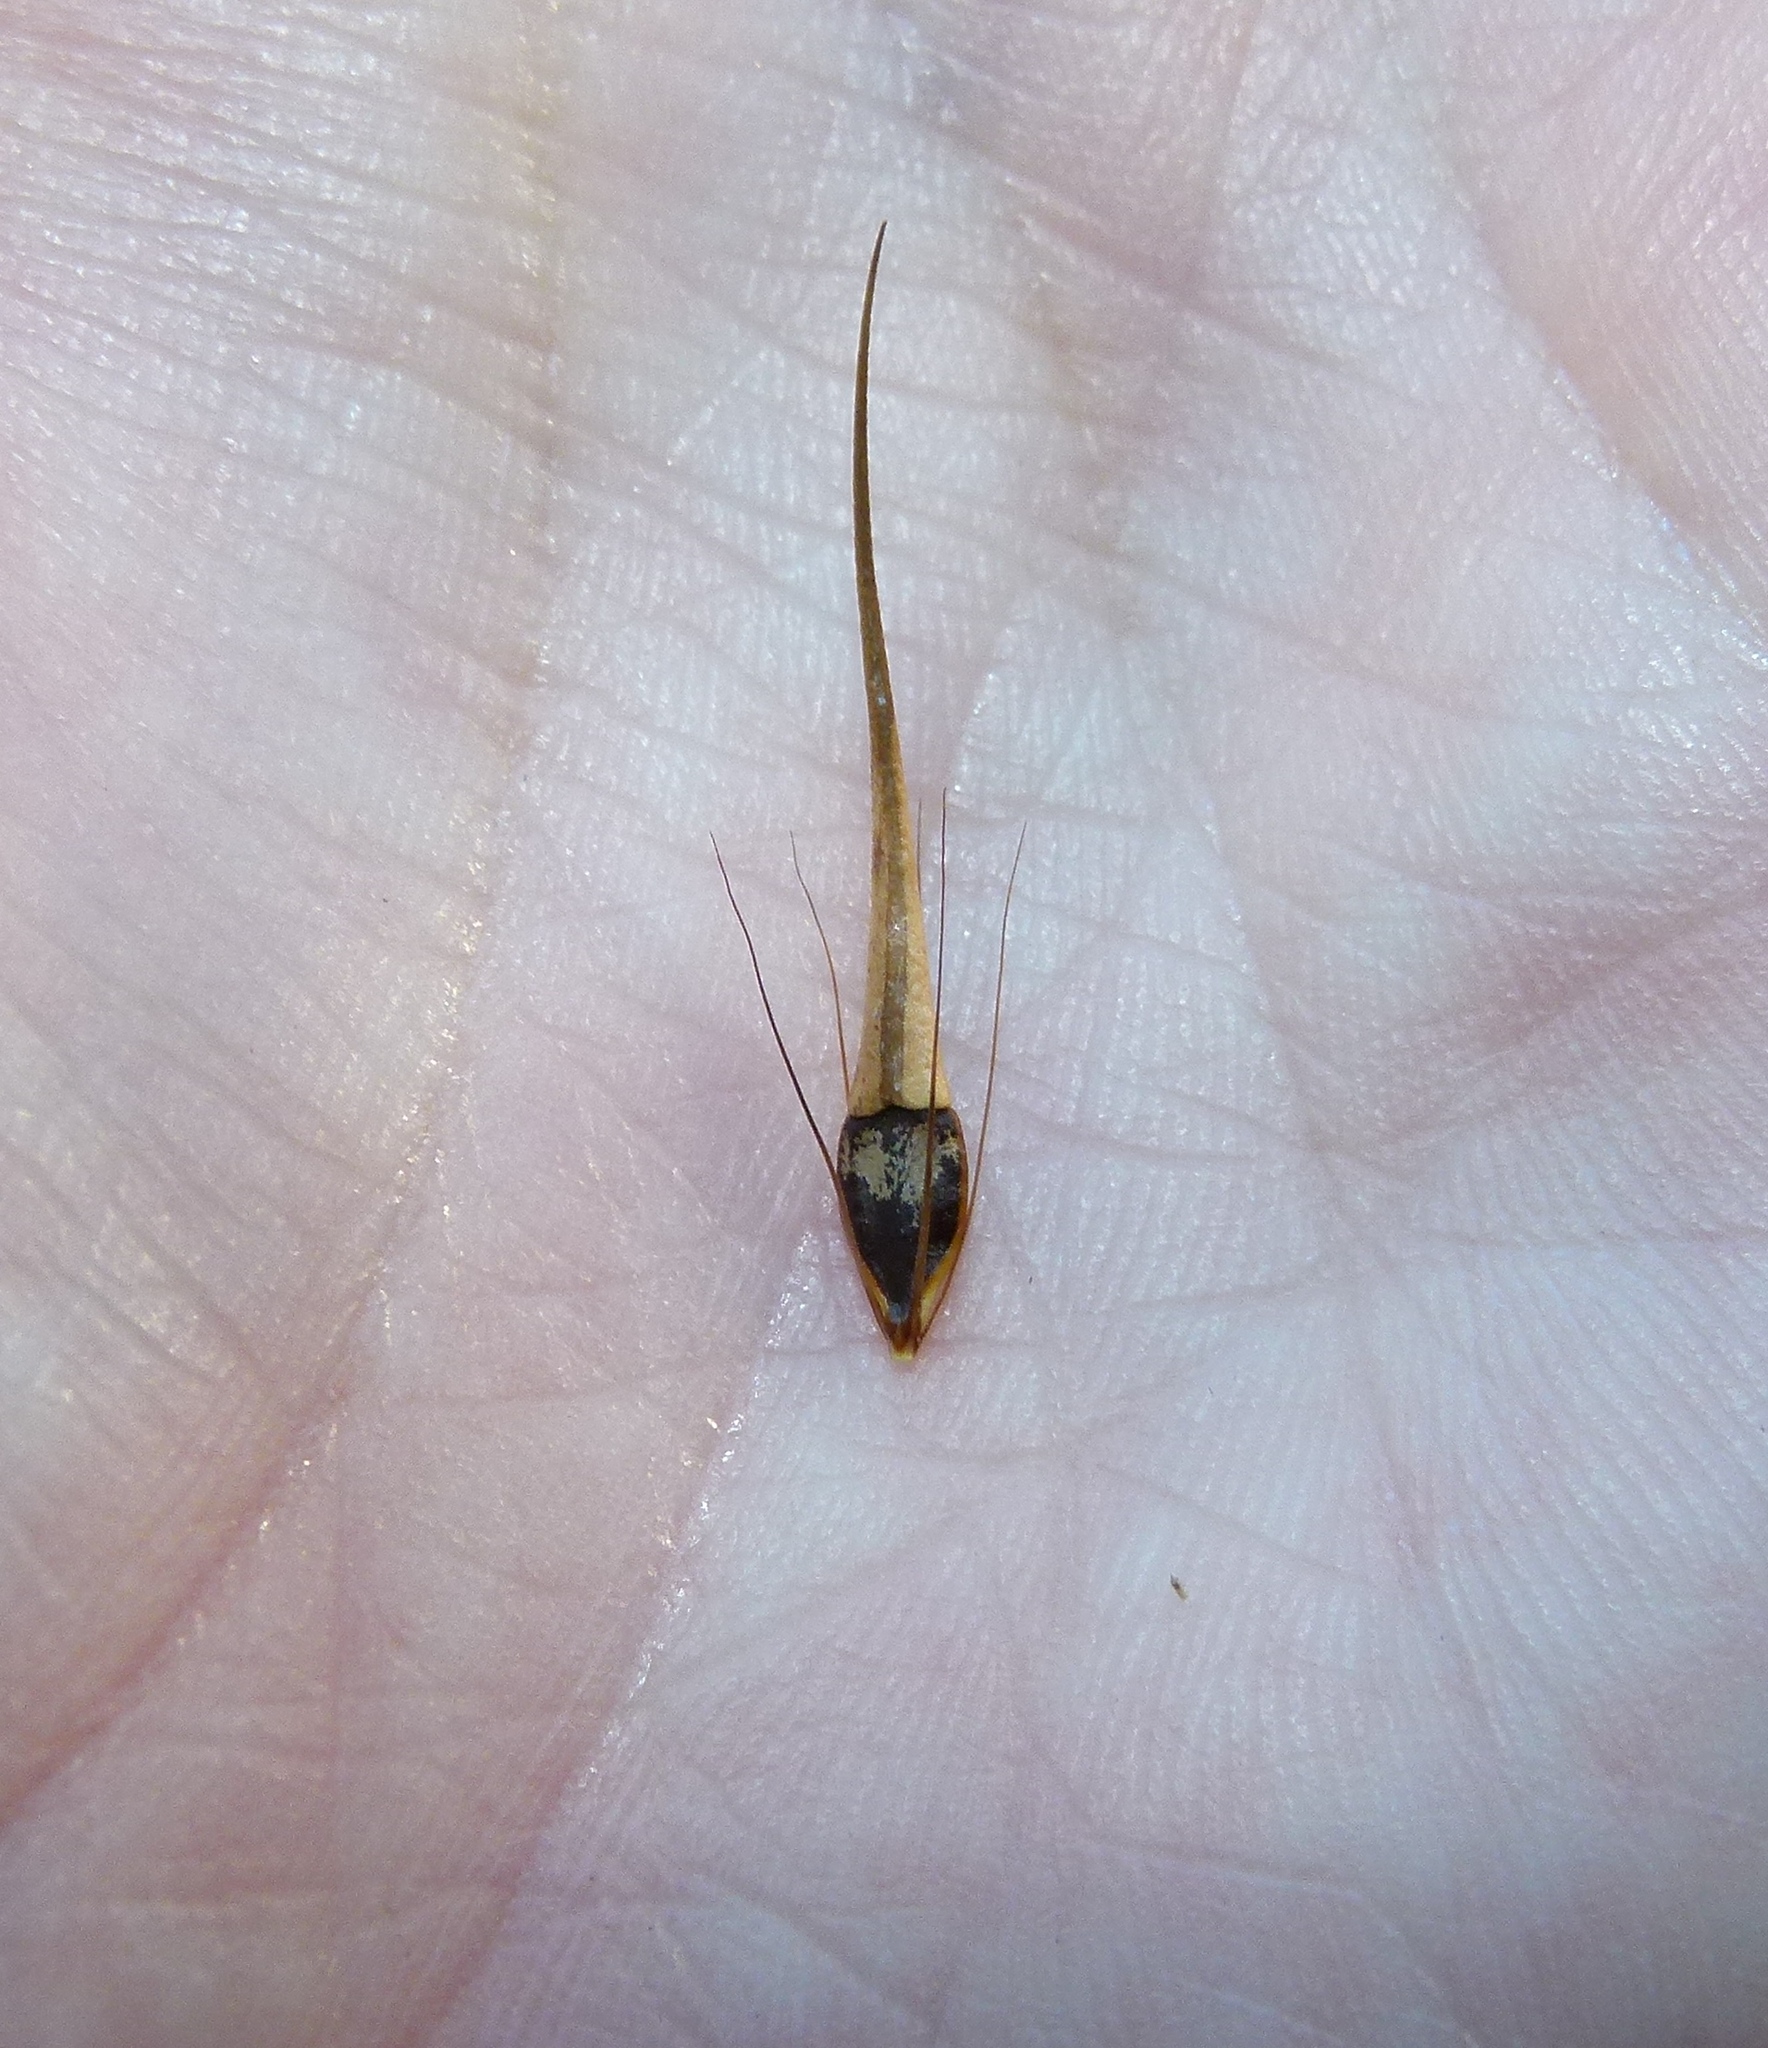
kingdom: Plantae
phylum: Tracheophyta
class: Liliopsida
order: Poales
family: Cyperaceae
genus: Rhynchospora
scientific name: Rhynchospora macrostachya
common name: Tall beakrush
